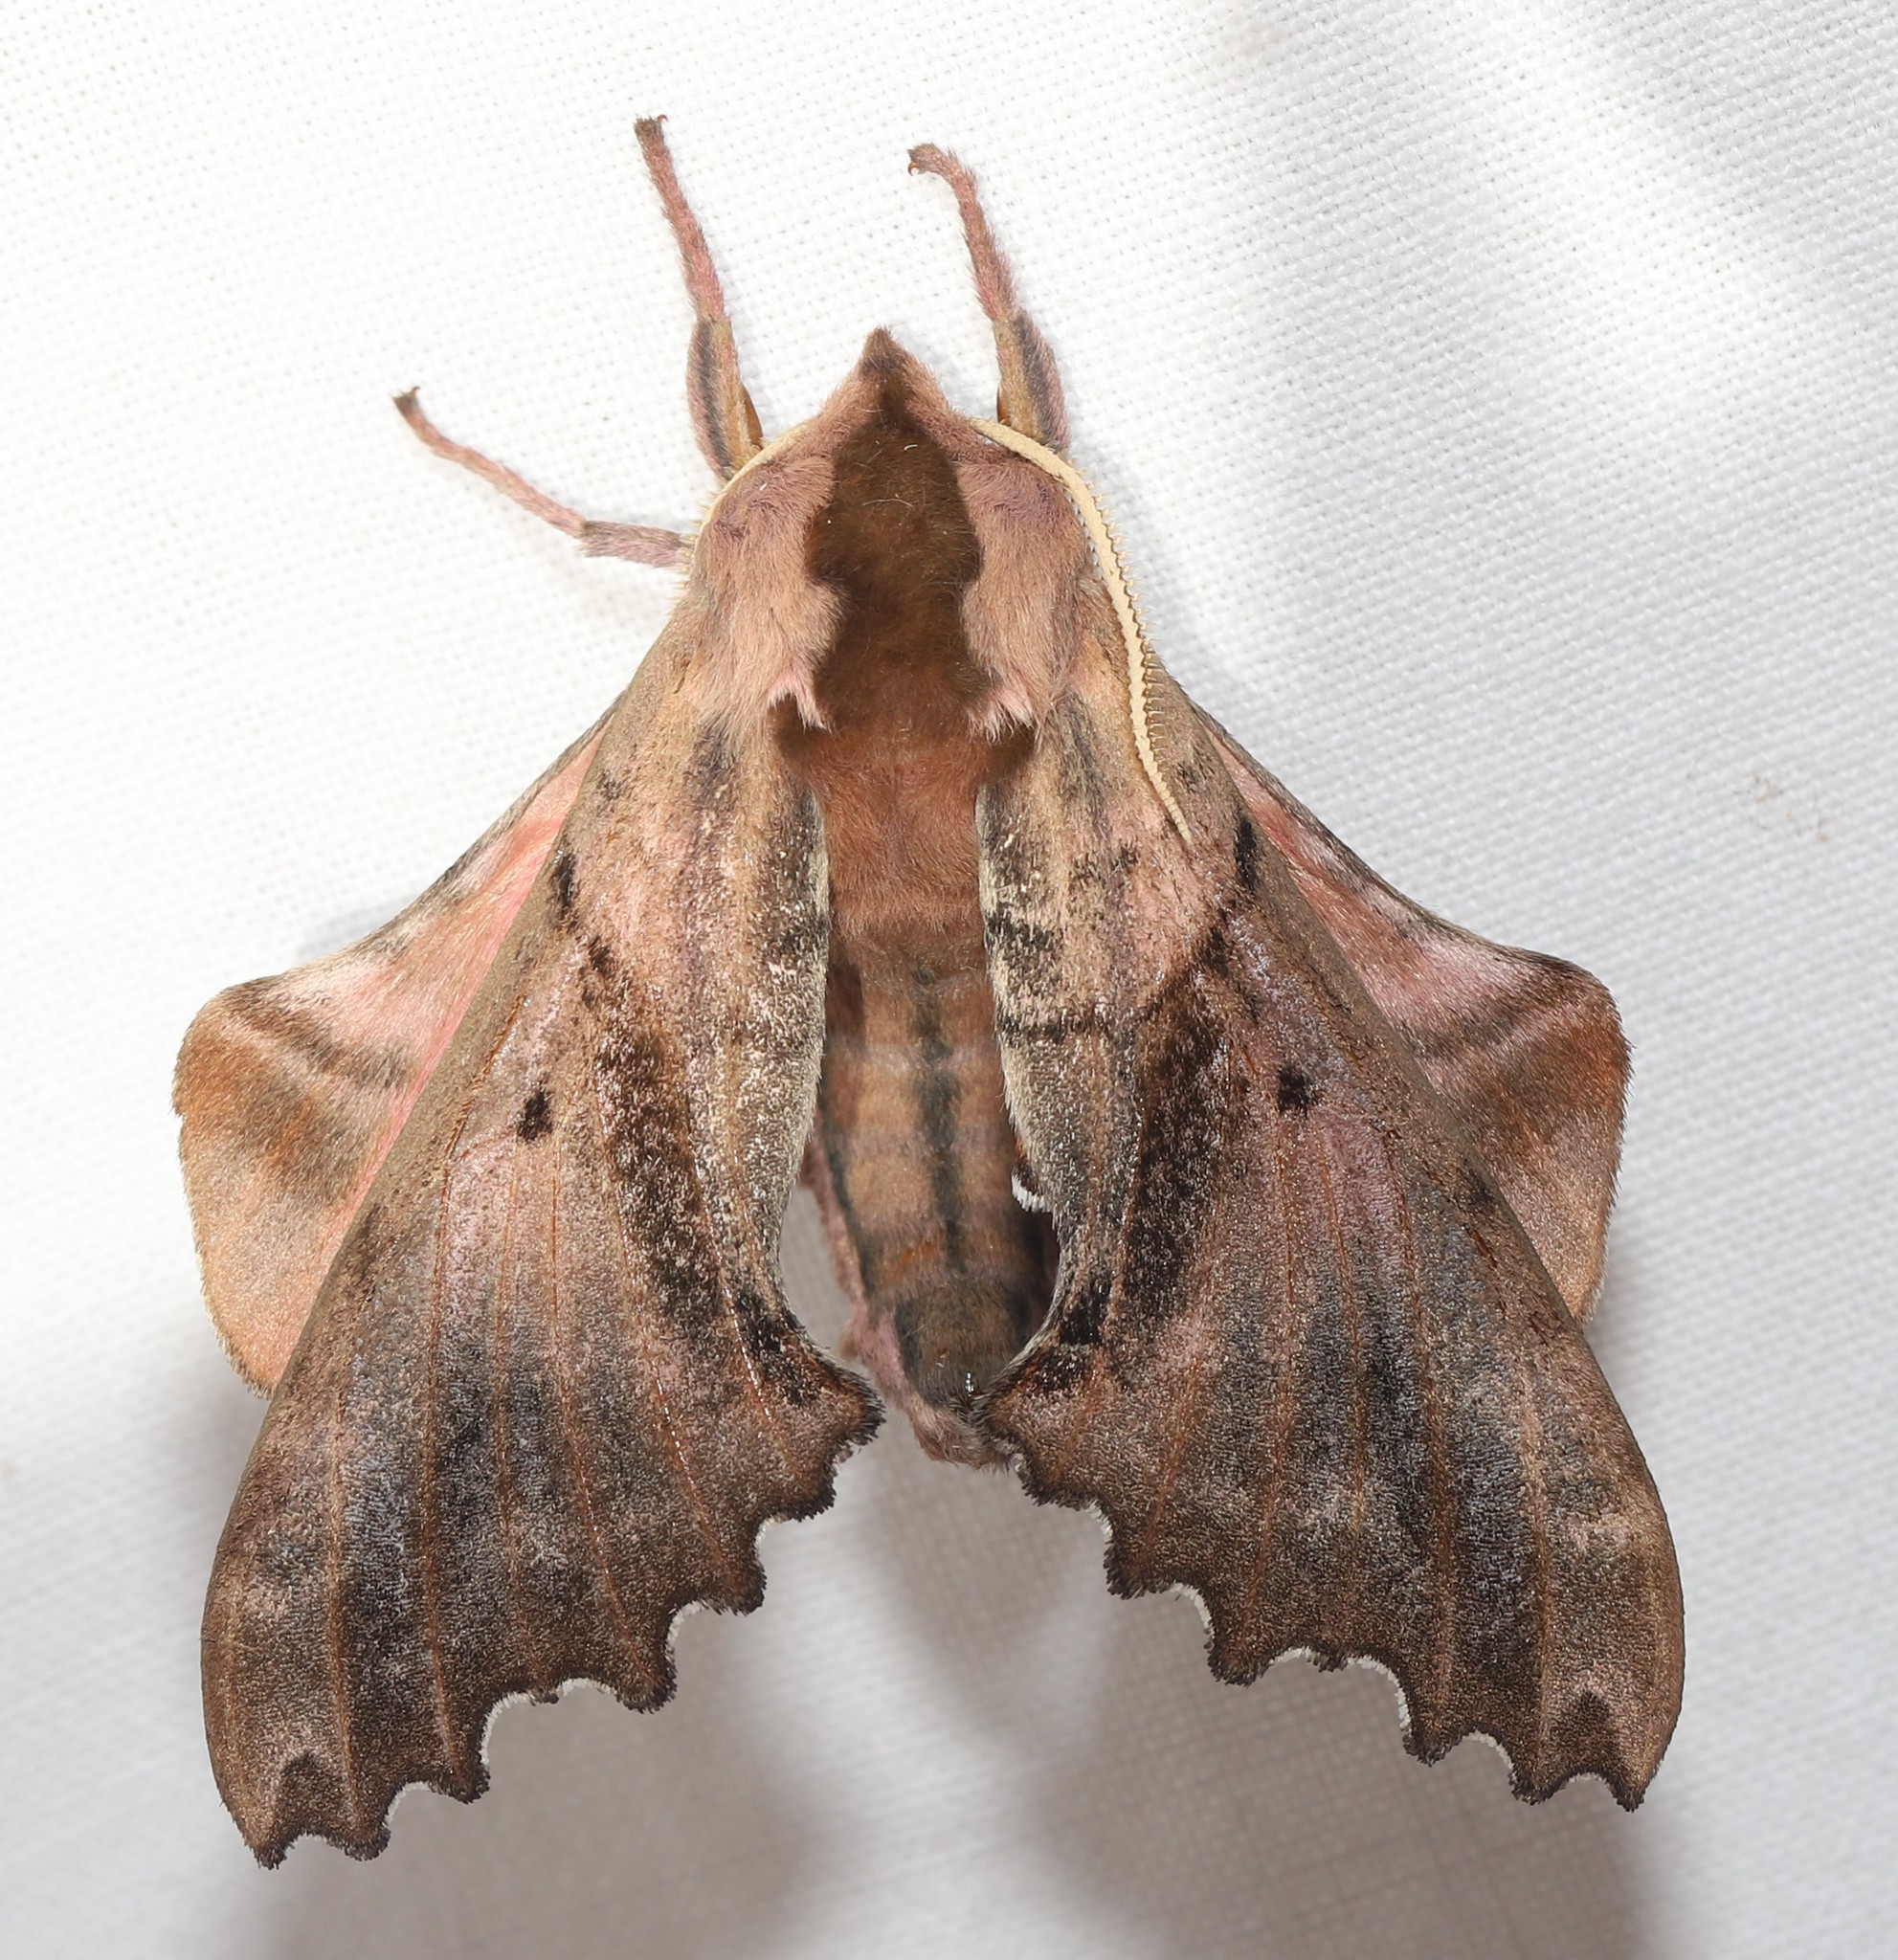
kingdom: Animalia
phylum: Arthropoda
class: Insecta
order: Lepidoptera
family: Sphingidae
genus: Paonias
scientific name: Paonias excaecata
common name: Blind-eyed sphinx
